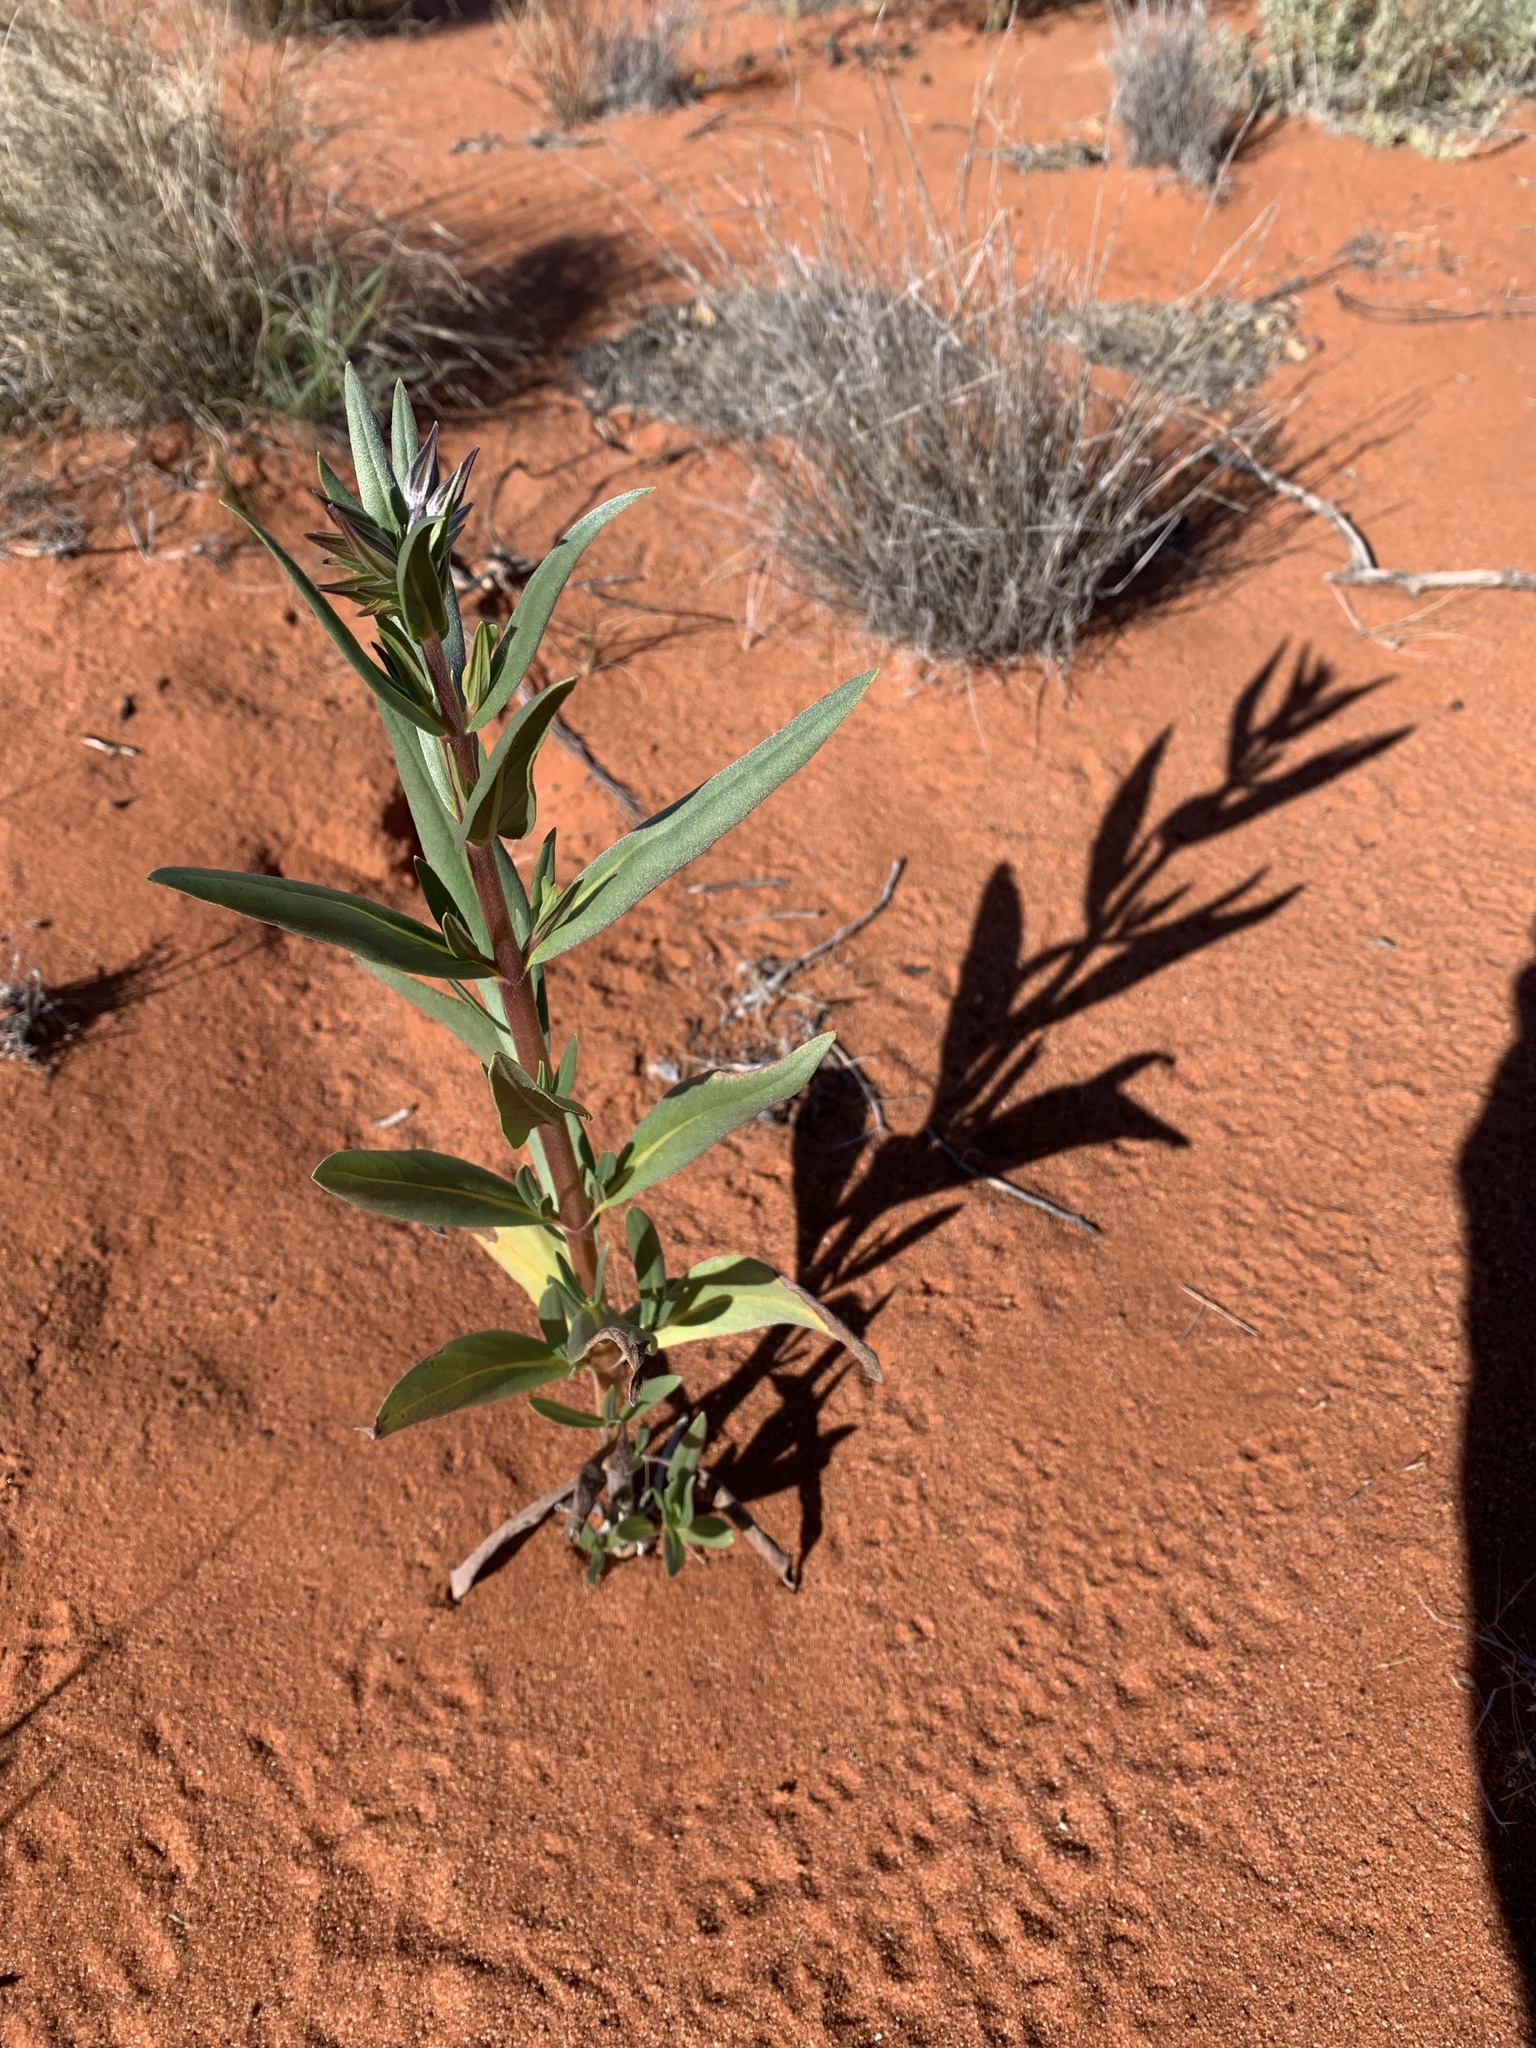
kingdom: Plantae
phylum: Tracheophyta
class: Magnoliopsida
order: Boraginales
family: Boraginaceae
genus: Trichodesma
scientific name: Trichodesma zeylanicum
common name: Camelbush
